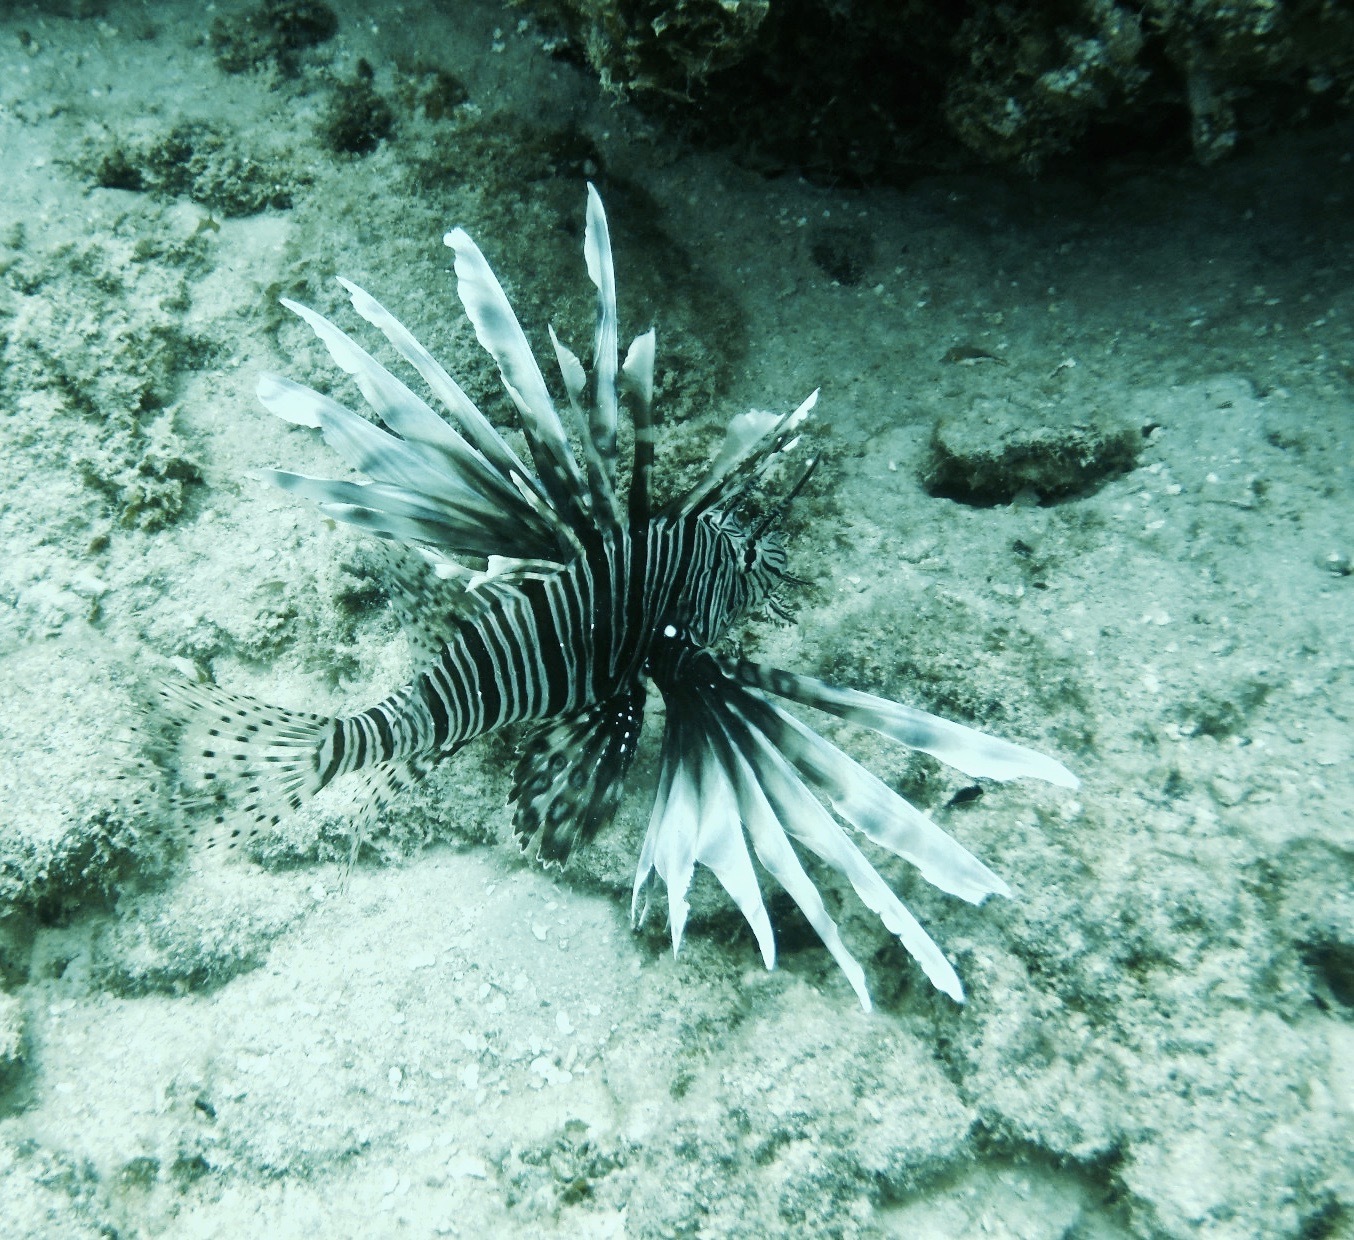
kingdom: Animalia
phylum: Chordata
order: Scorpaeniformes
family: Scorpaenidae
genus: Pterois
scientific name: Pterois volitans
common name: Lionfish
